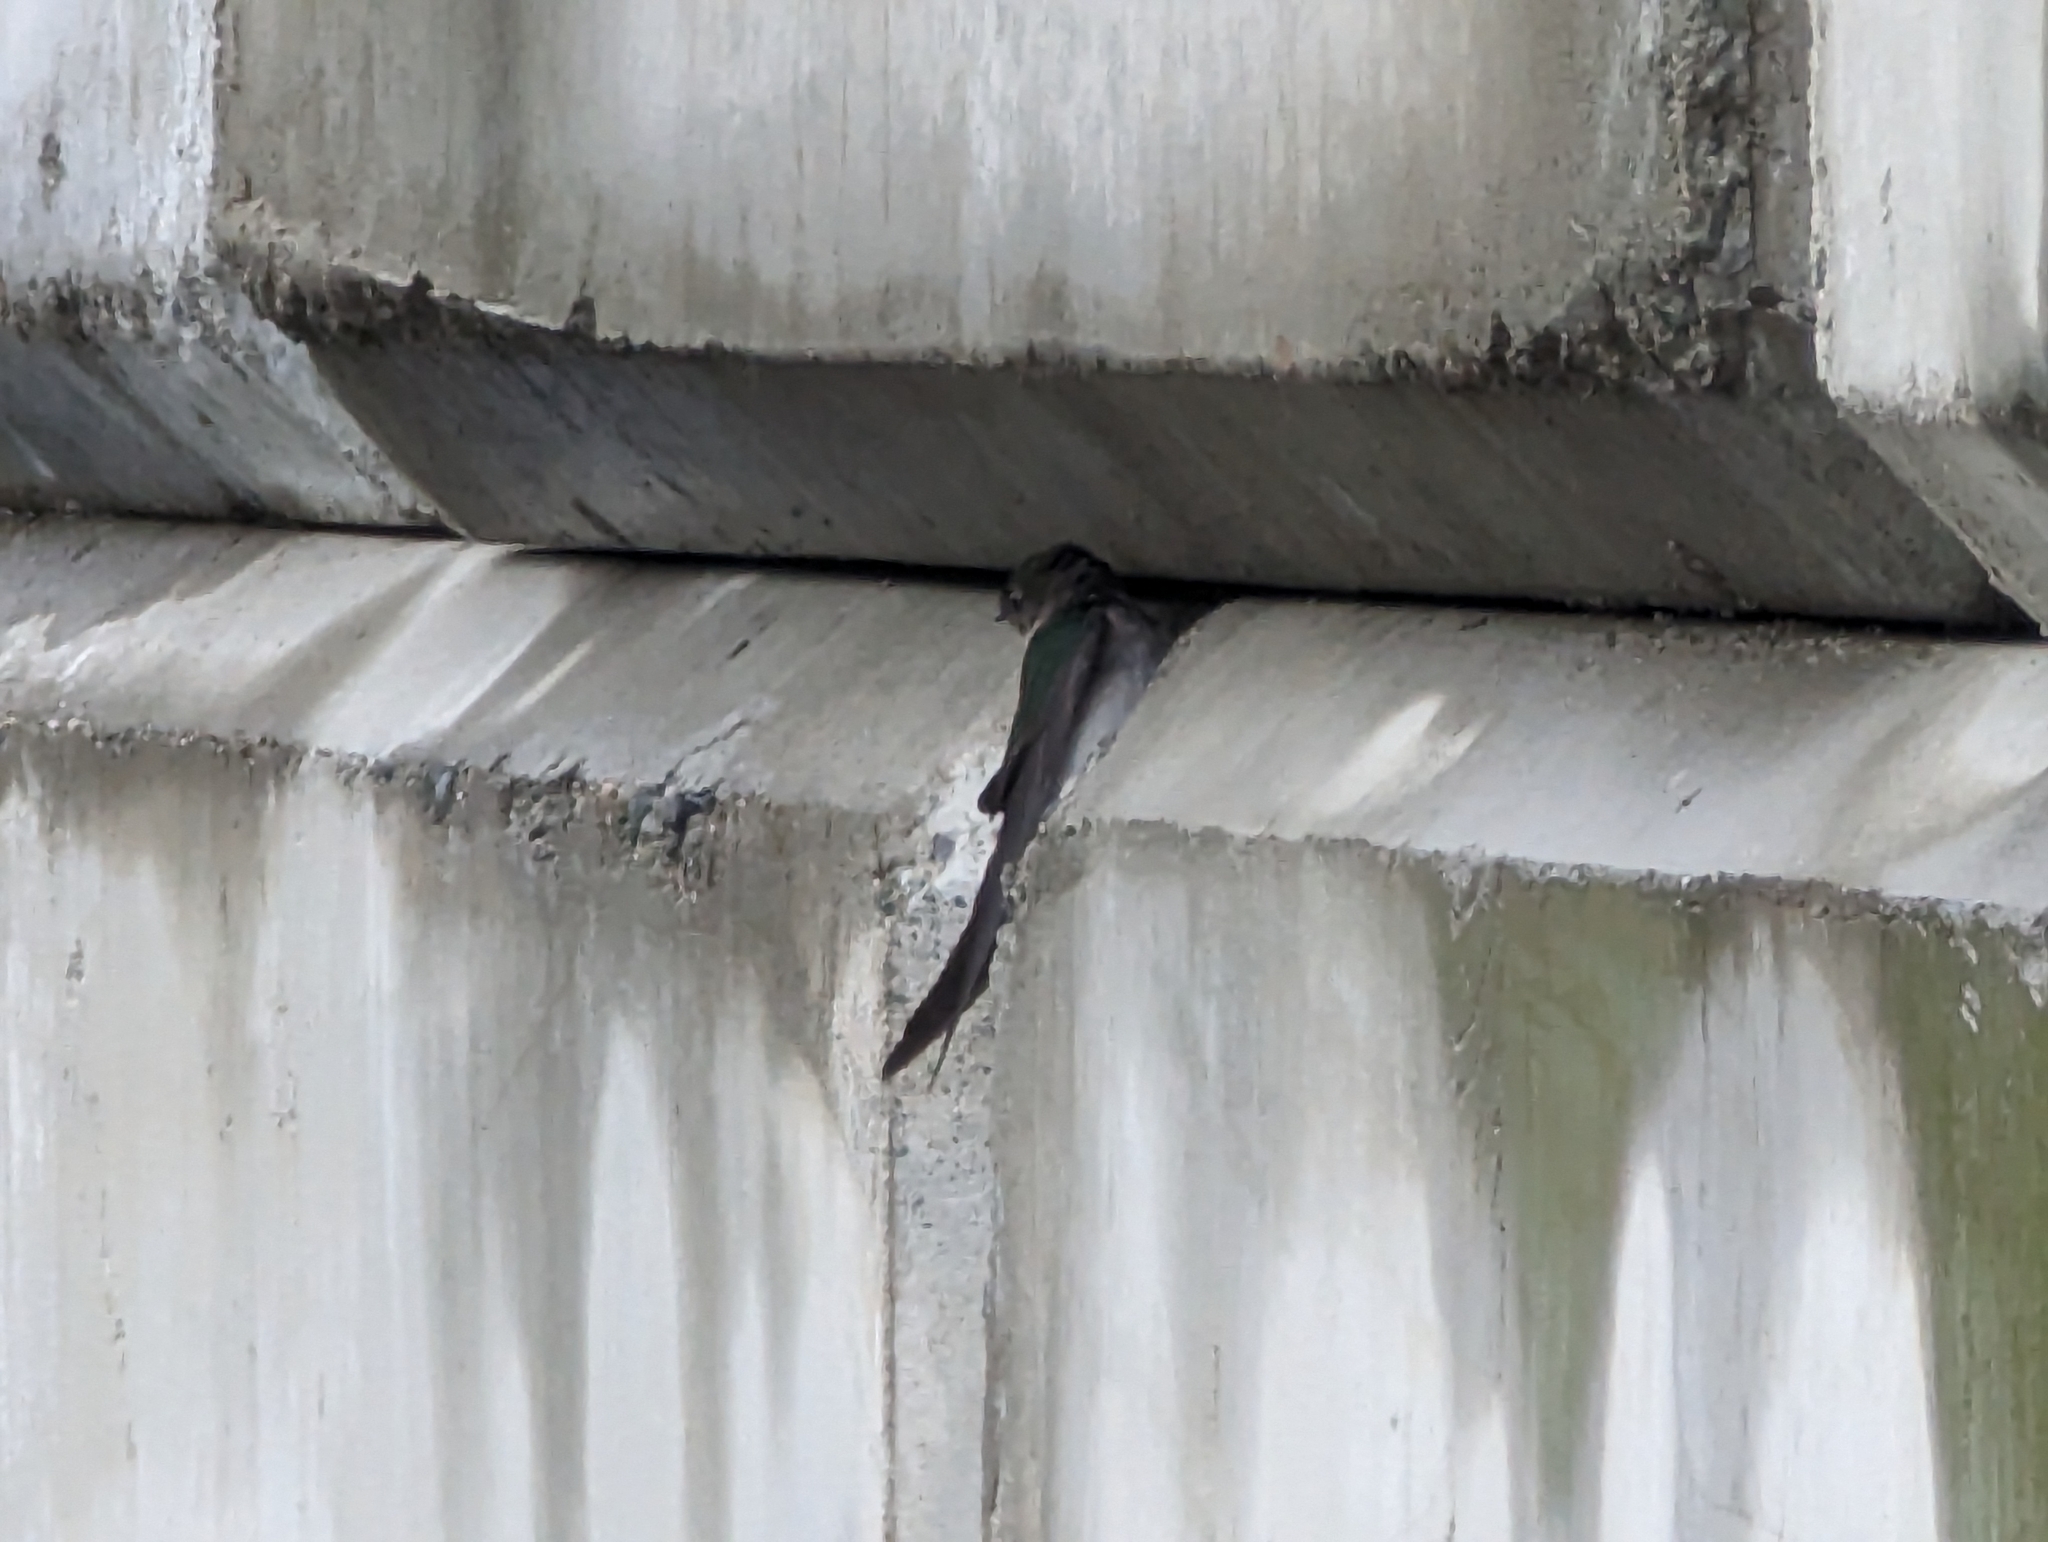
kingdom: Animalia
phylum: Chordata
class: Aves
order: Passeriformes
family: Hirundinidae
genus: Tachycineta
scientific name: Tachycineta thalassina
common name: Violet-green swallow
